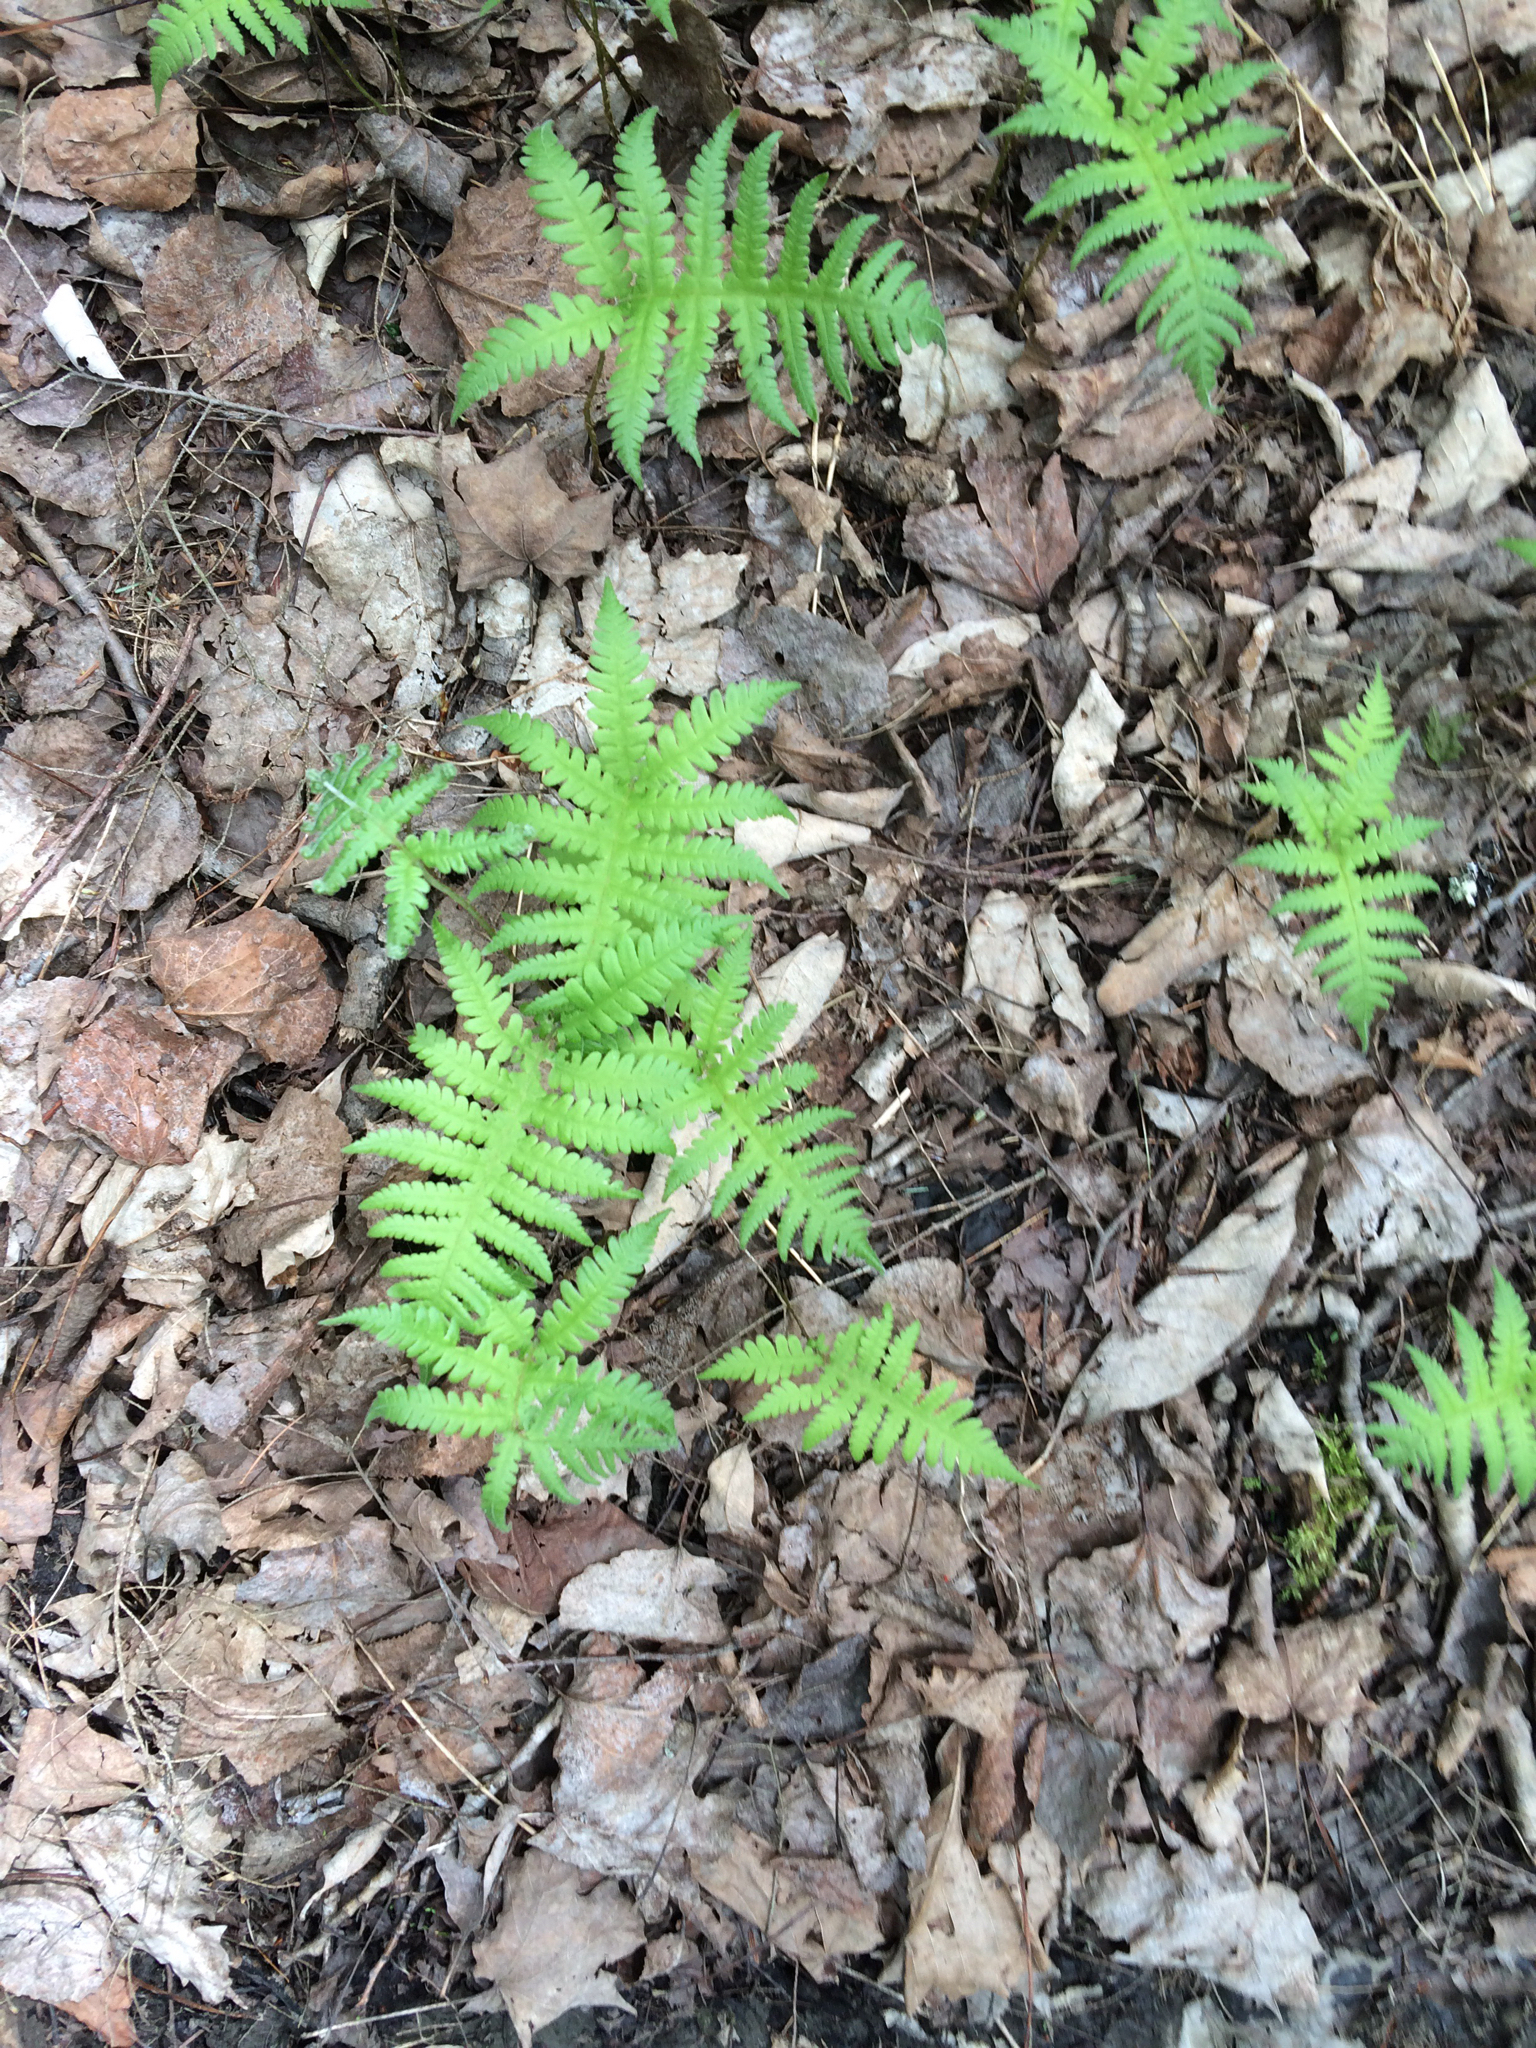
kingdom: Plantae
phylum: Tracheophyta
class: Polypodiopsida
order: Polypodiales
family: Thelypteridaceae
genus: Phegopteris
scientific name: Phegopteris connectilis
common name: Beech fern
